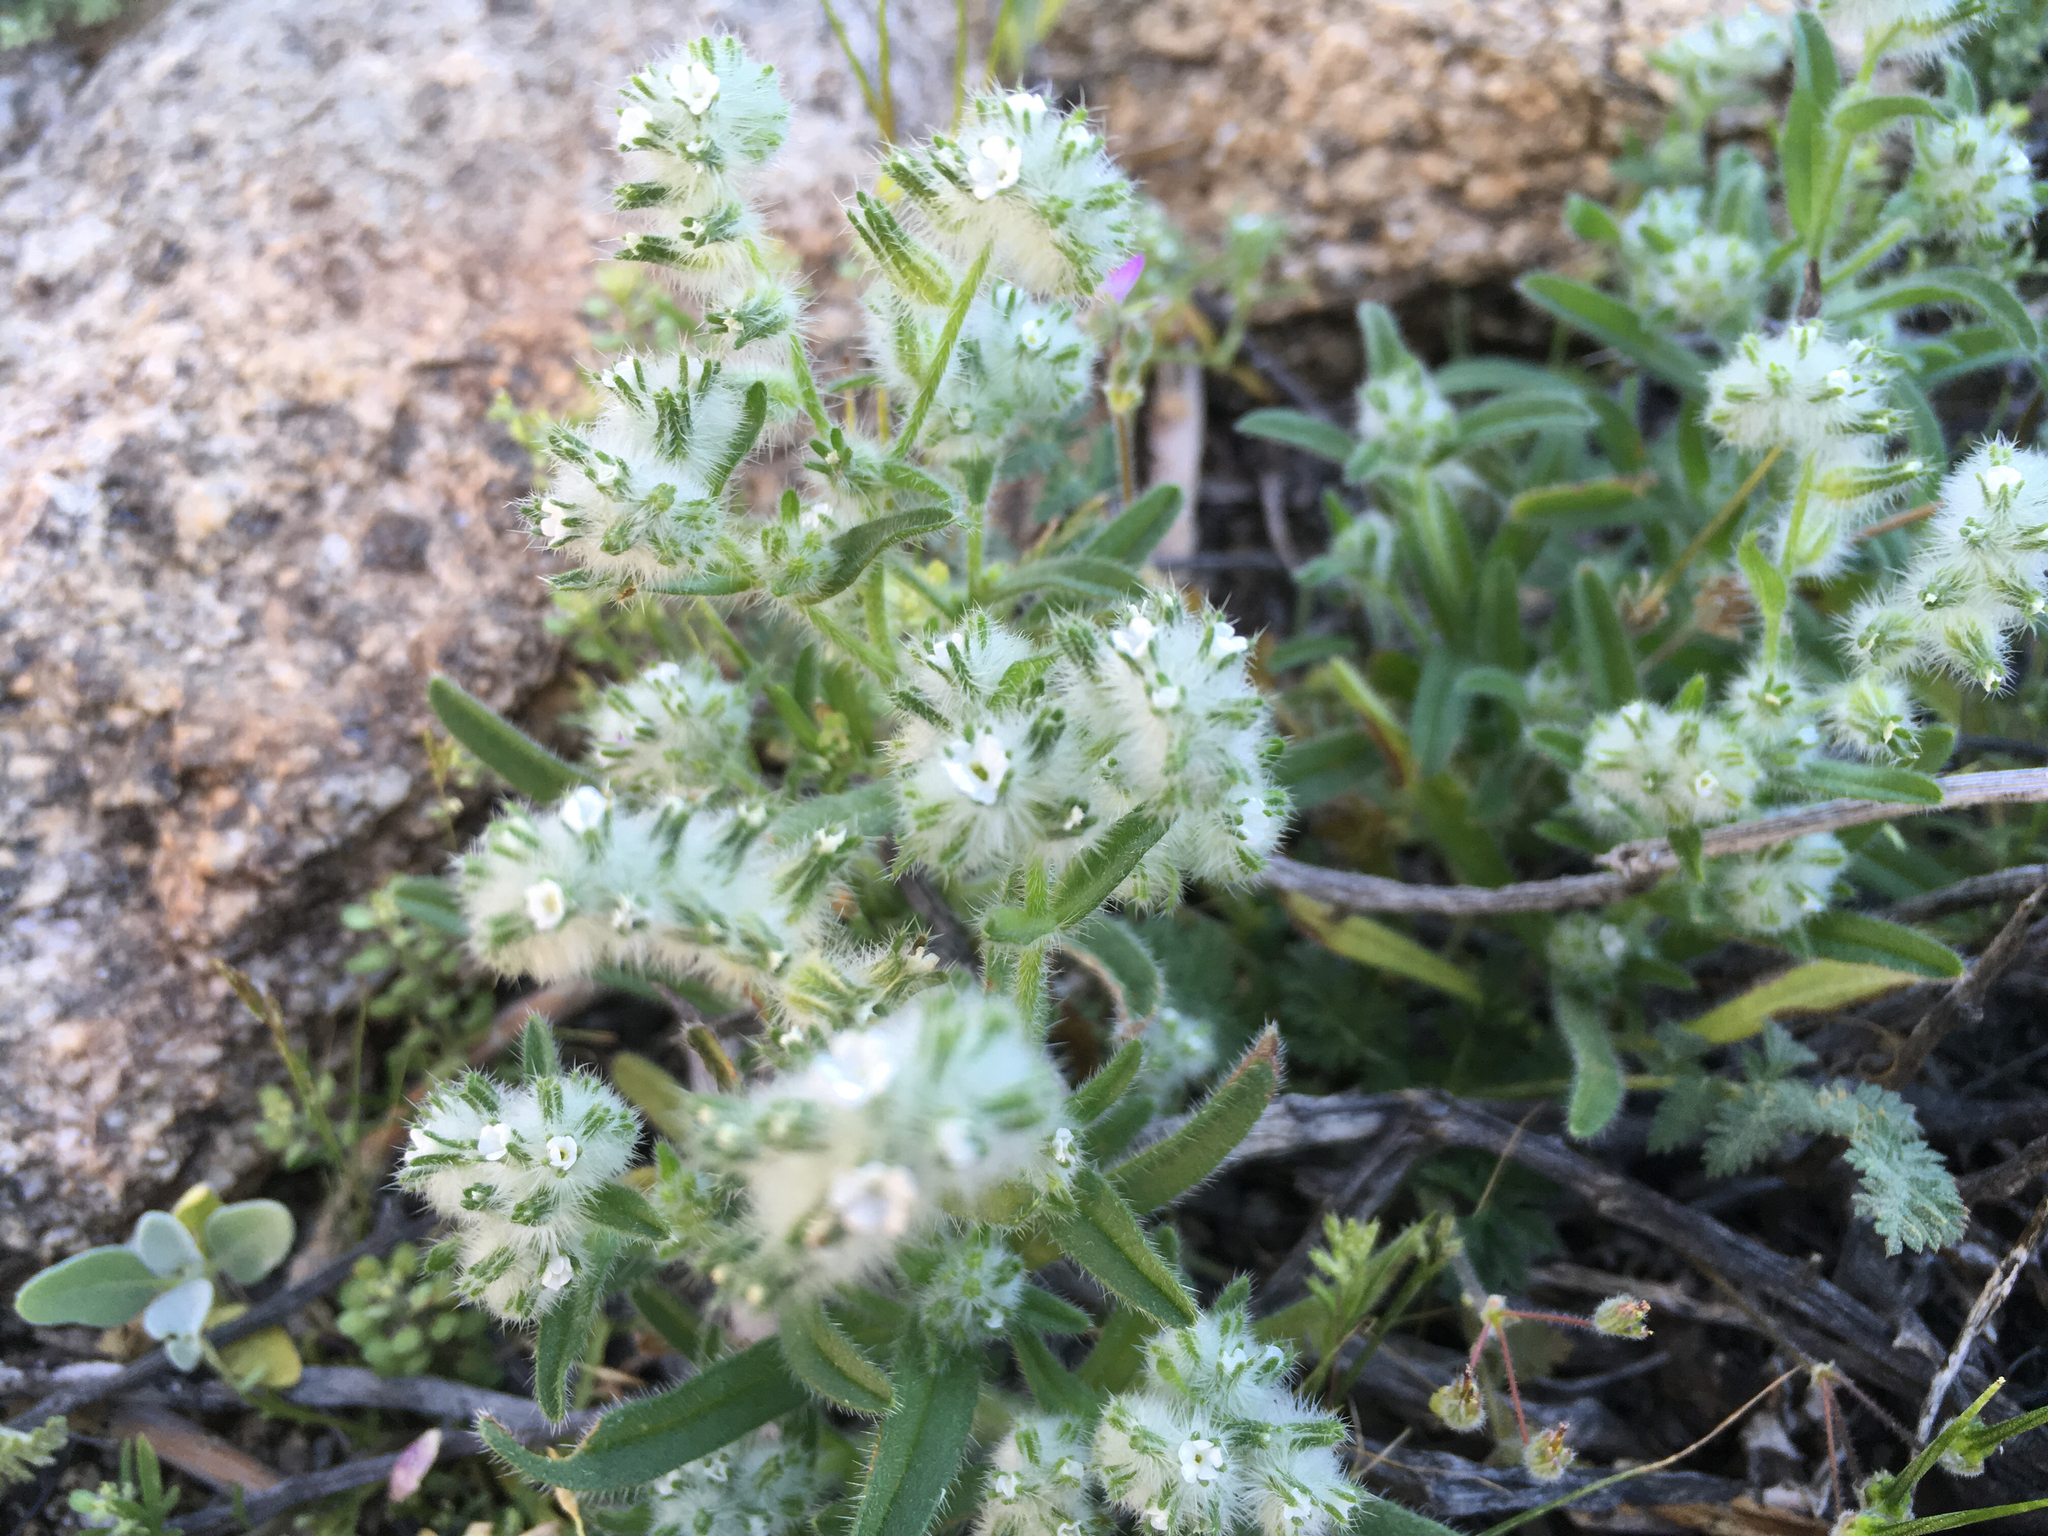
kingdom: Plantae
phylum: Tracheophyta
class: Magnoliopsida
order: Boraginales
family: Boraginaceae
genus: Cryptantha
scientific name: Cryptantha barbigera
